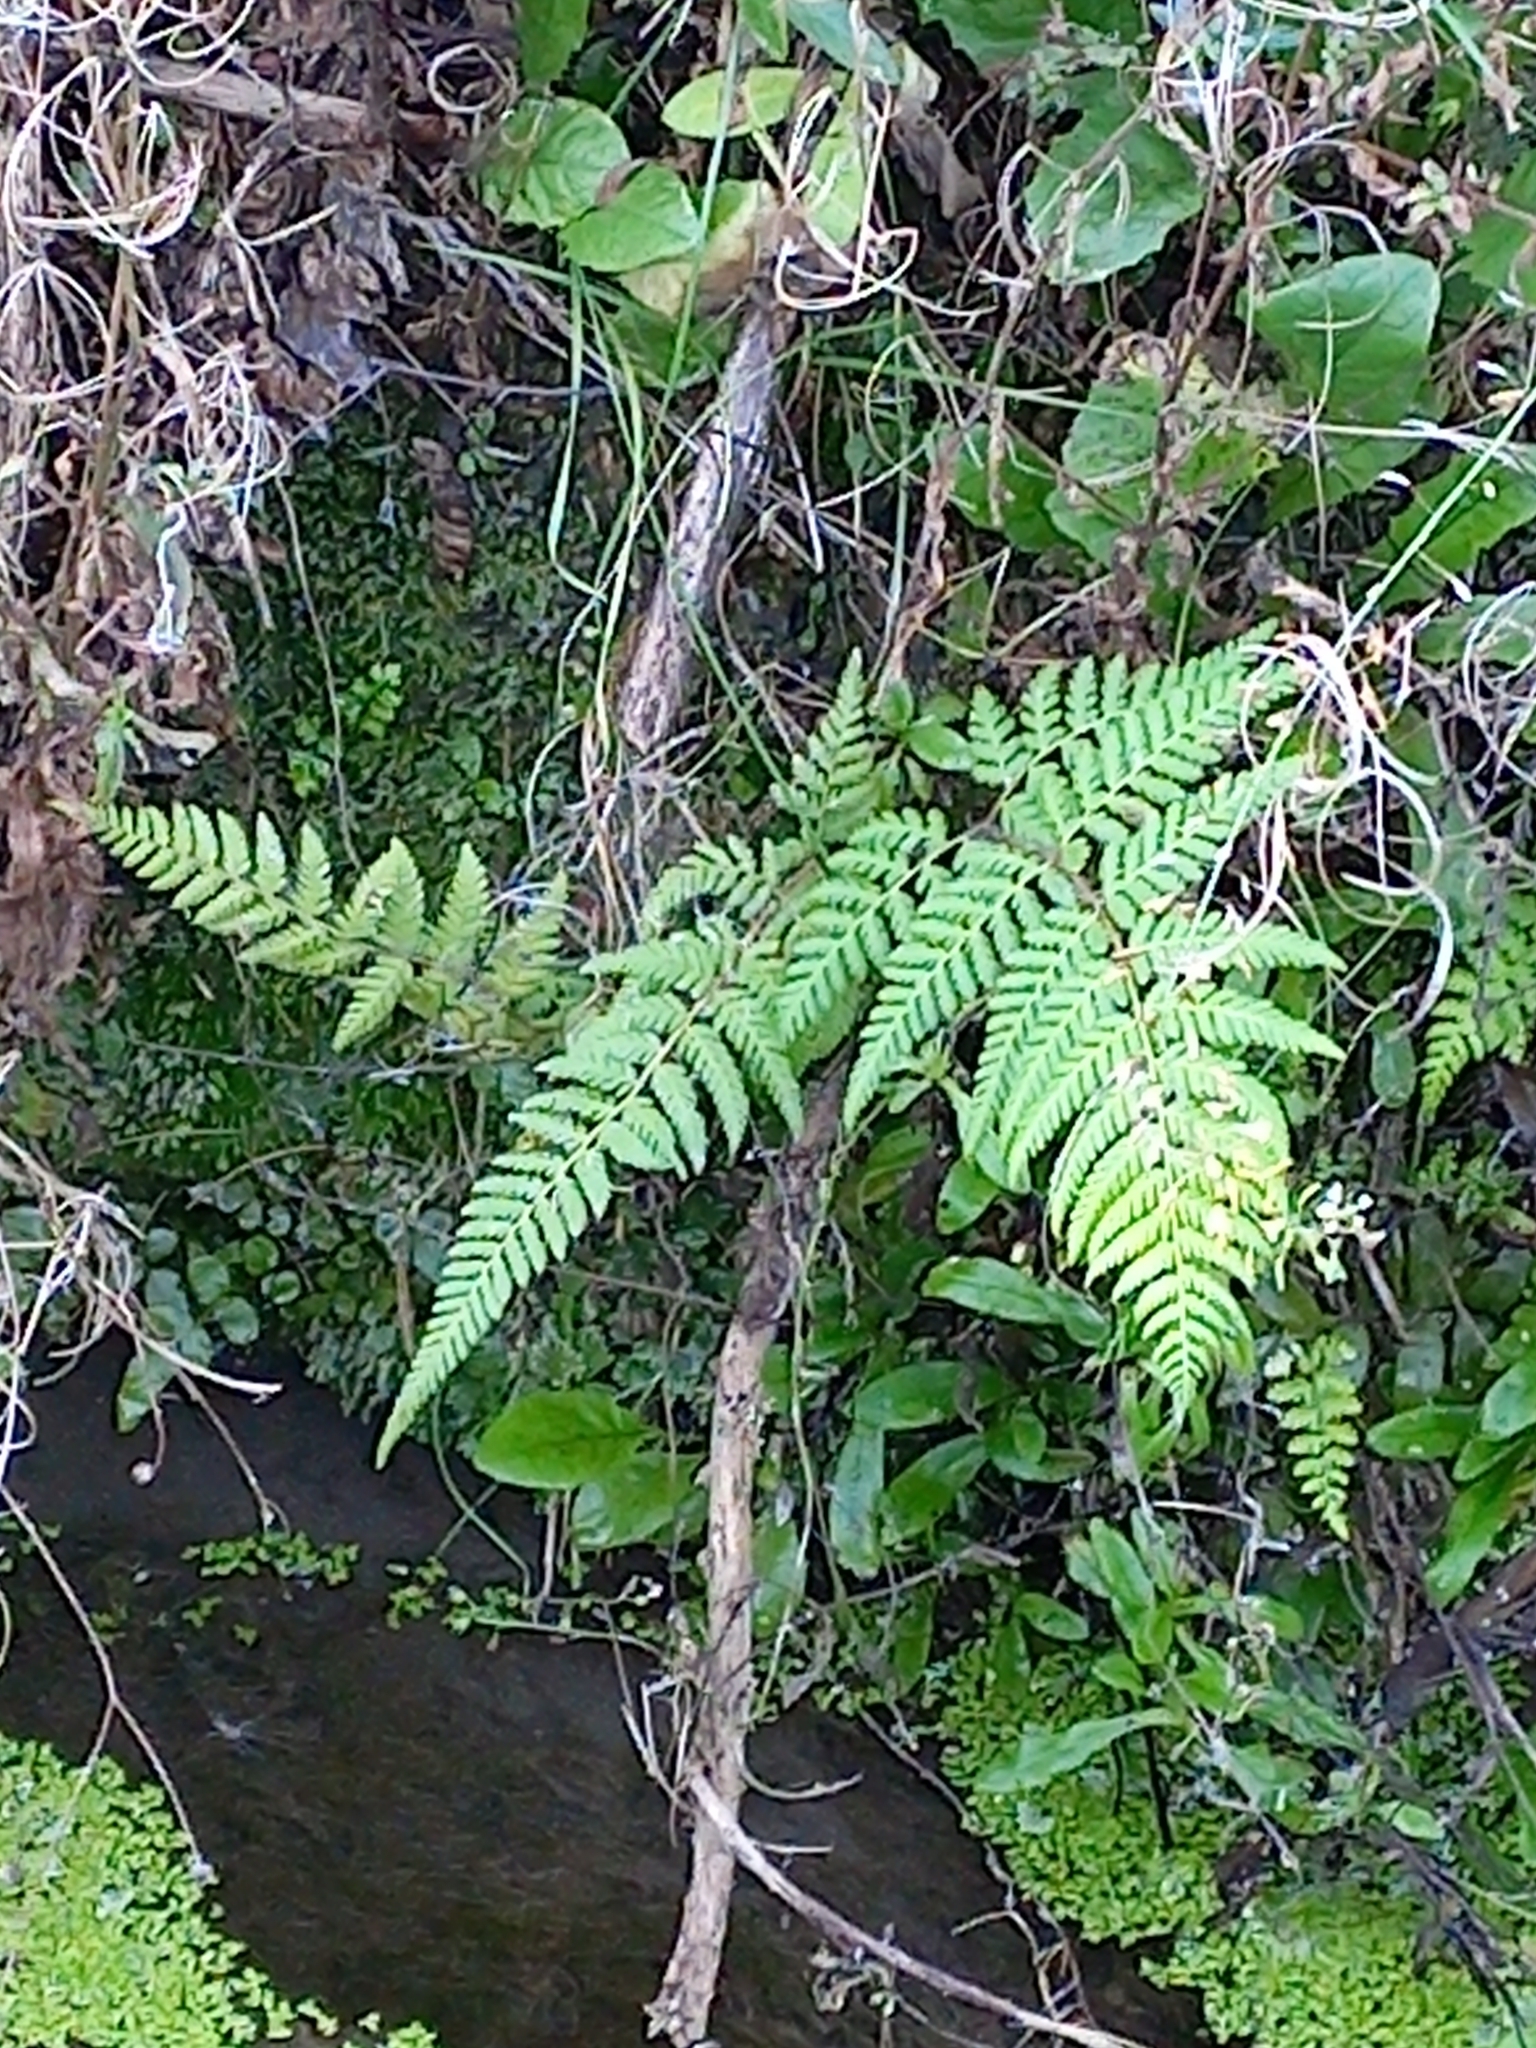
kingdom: Plantae
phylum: Tracheophyta
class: Polypodiopsida
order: Polypodiales
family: Dennstaedtiaceae
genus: Hypolepis
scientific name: Hypolepis ambigua
